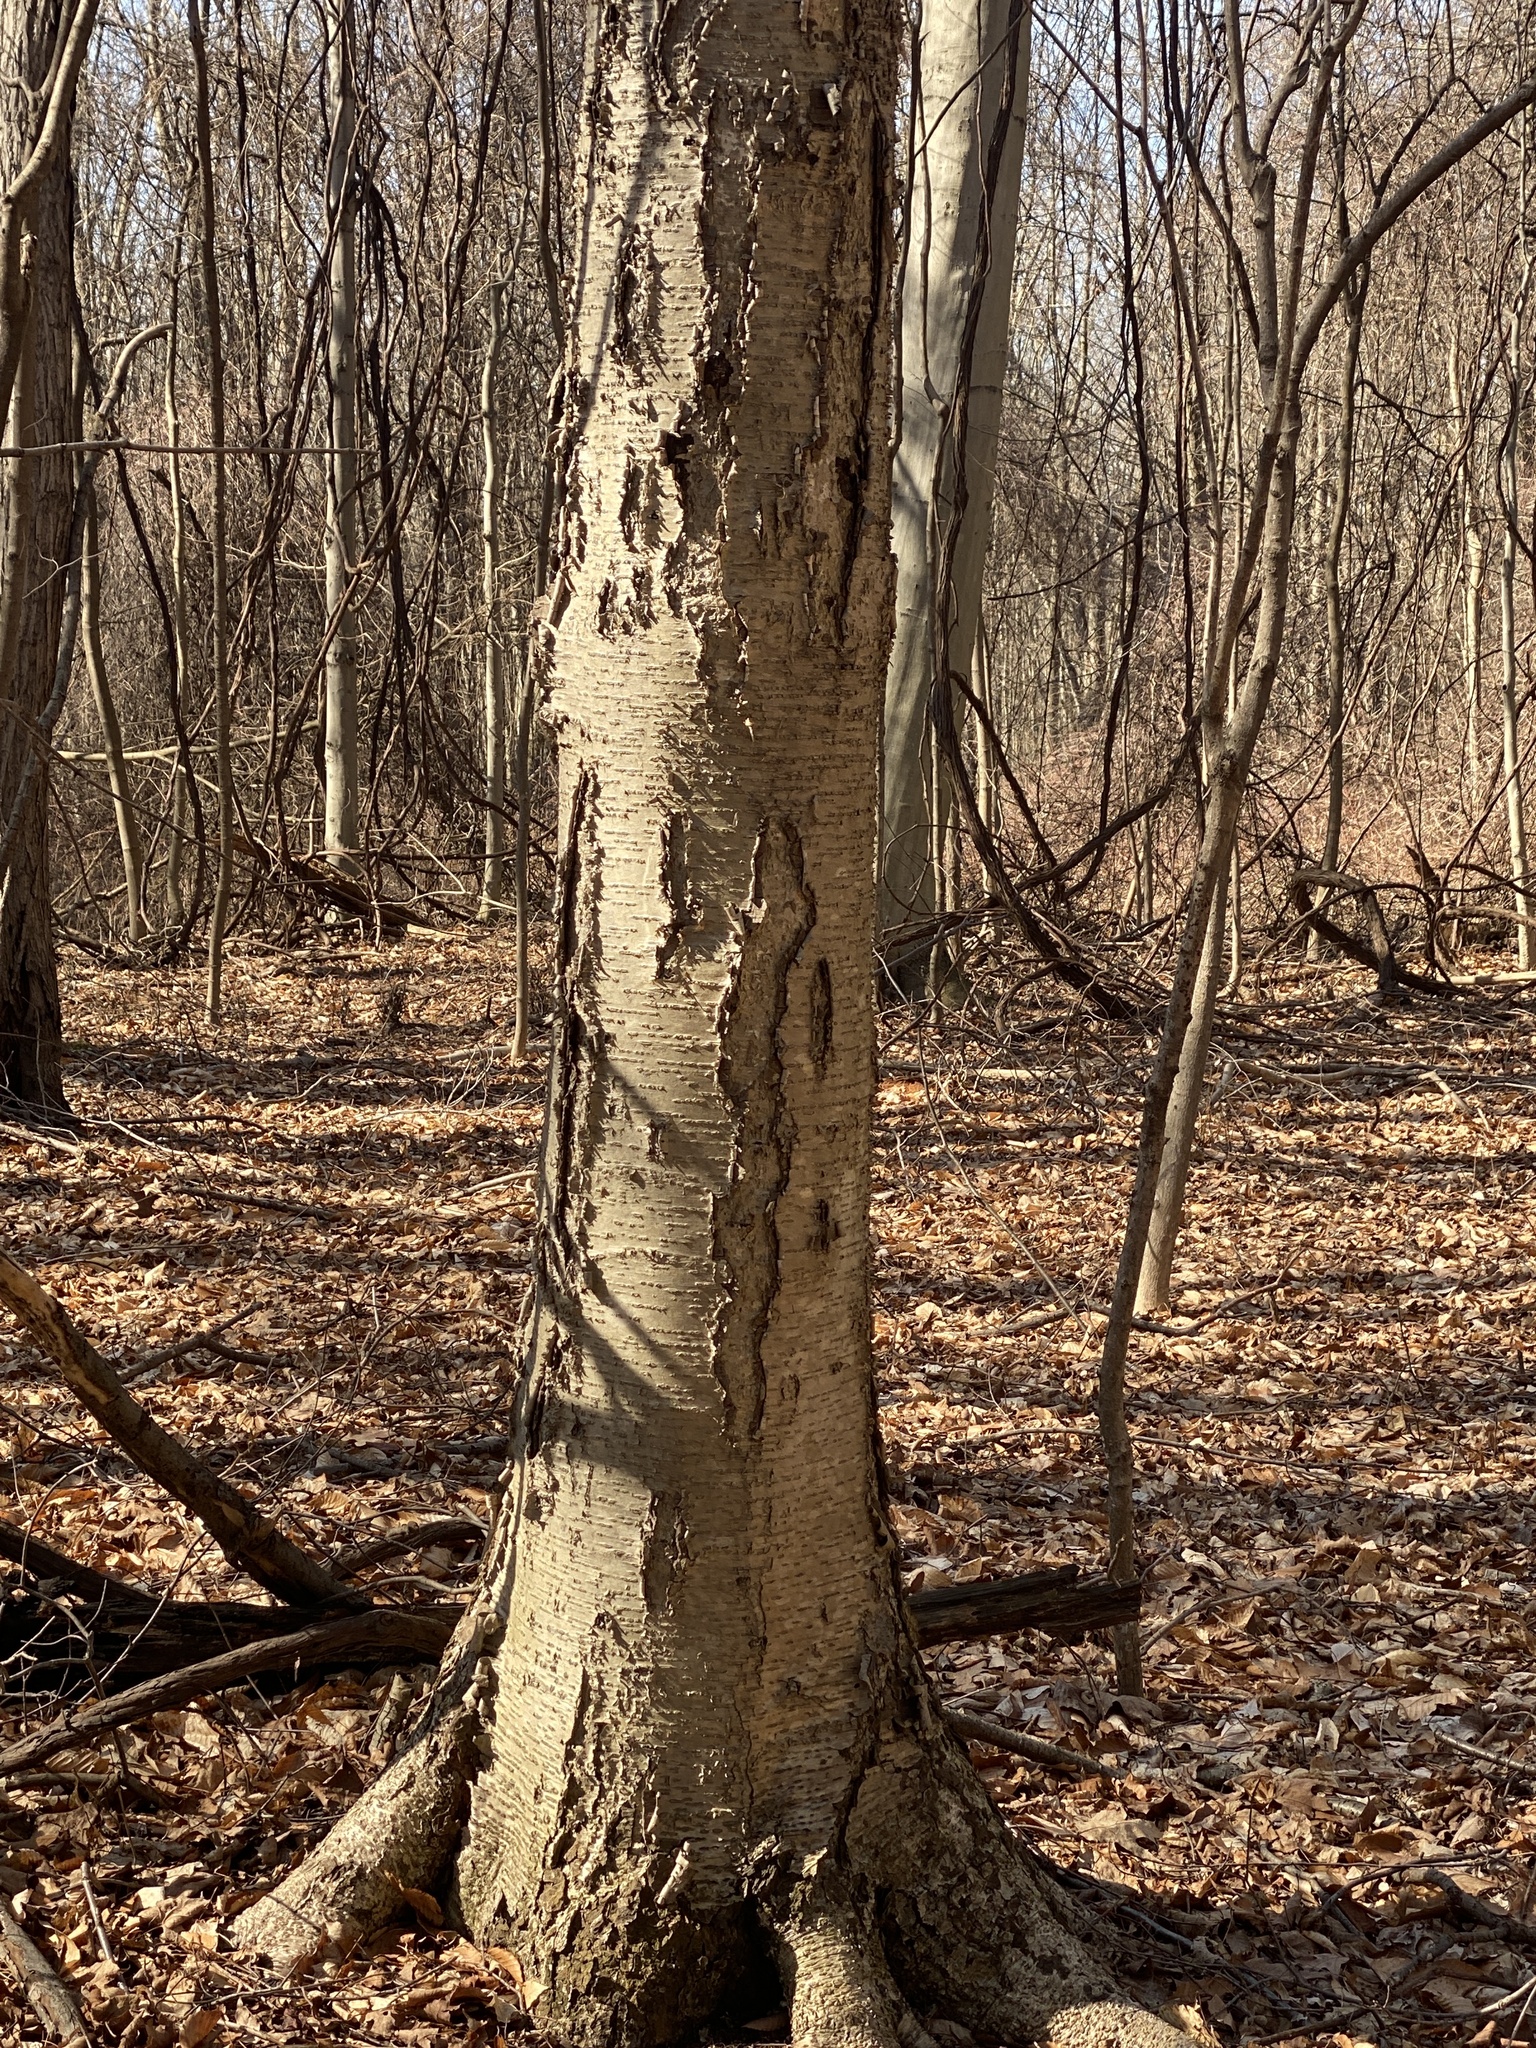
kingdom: Plantae
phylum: Tracheophyta
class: Magnoliopsida
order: Fagales
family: Betulaceae
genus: Betula
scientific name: Betula lenta
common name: Black birch
